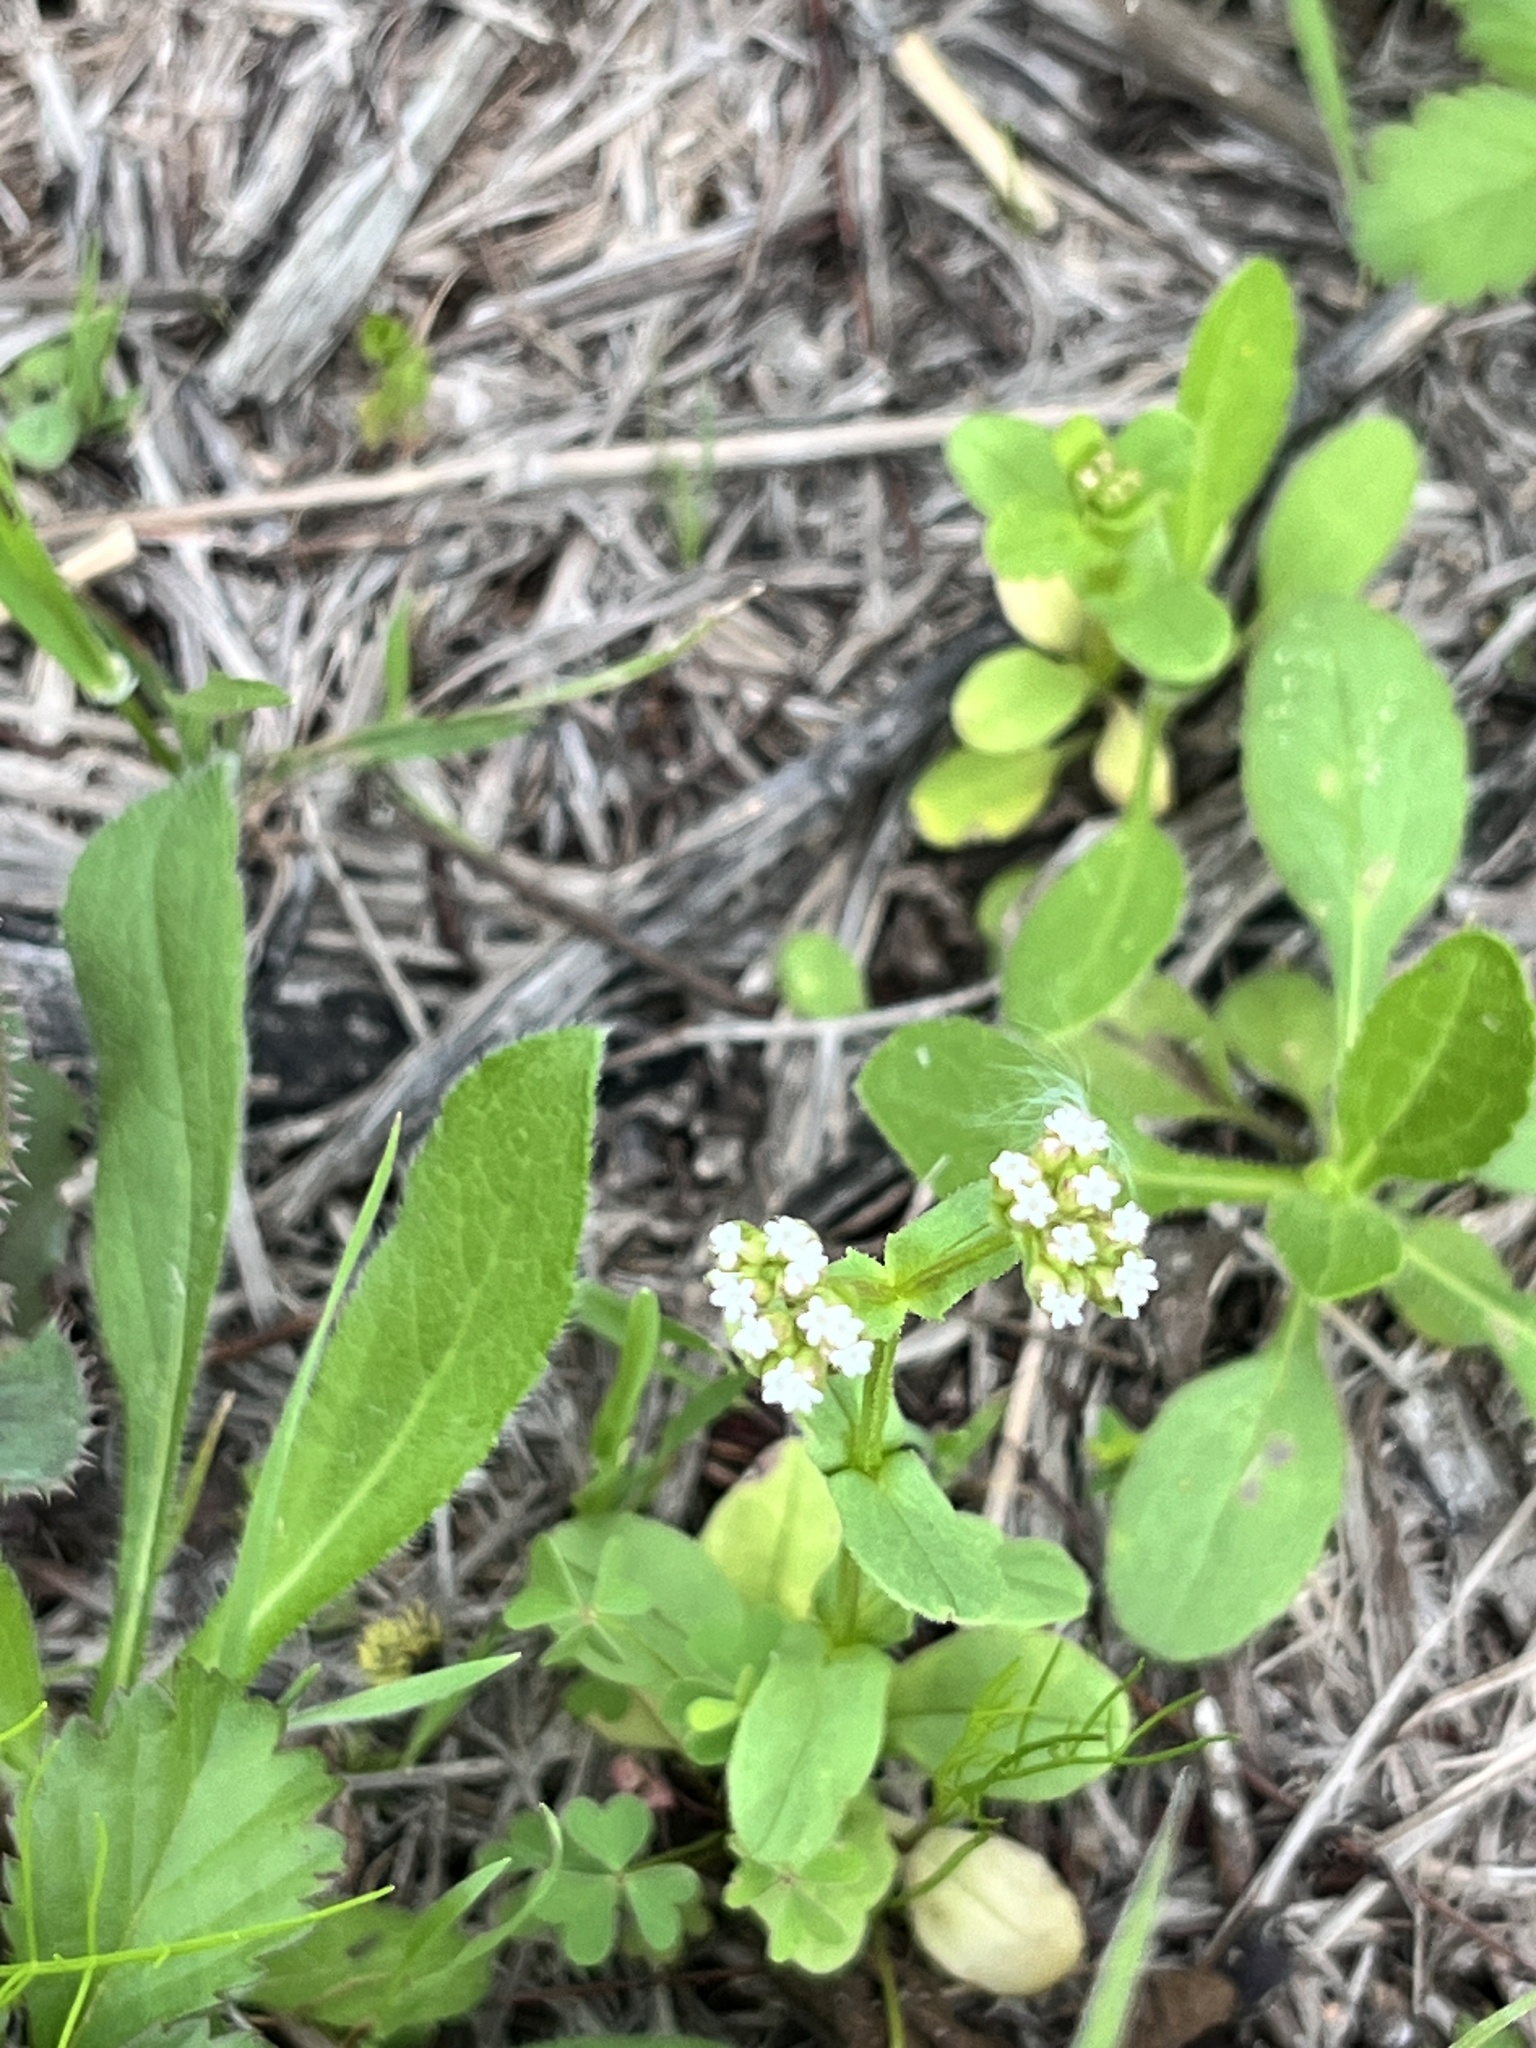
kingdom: Plantae
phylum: Tracheophyta
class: Magnoliopsida
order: Dipsacales
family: Caprifoliaceae
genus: Valerianella
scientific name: Valerianella radiata
